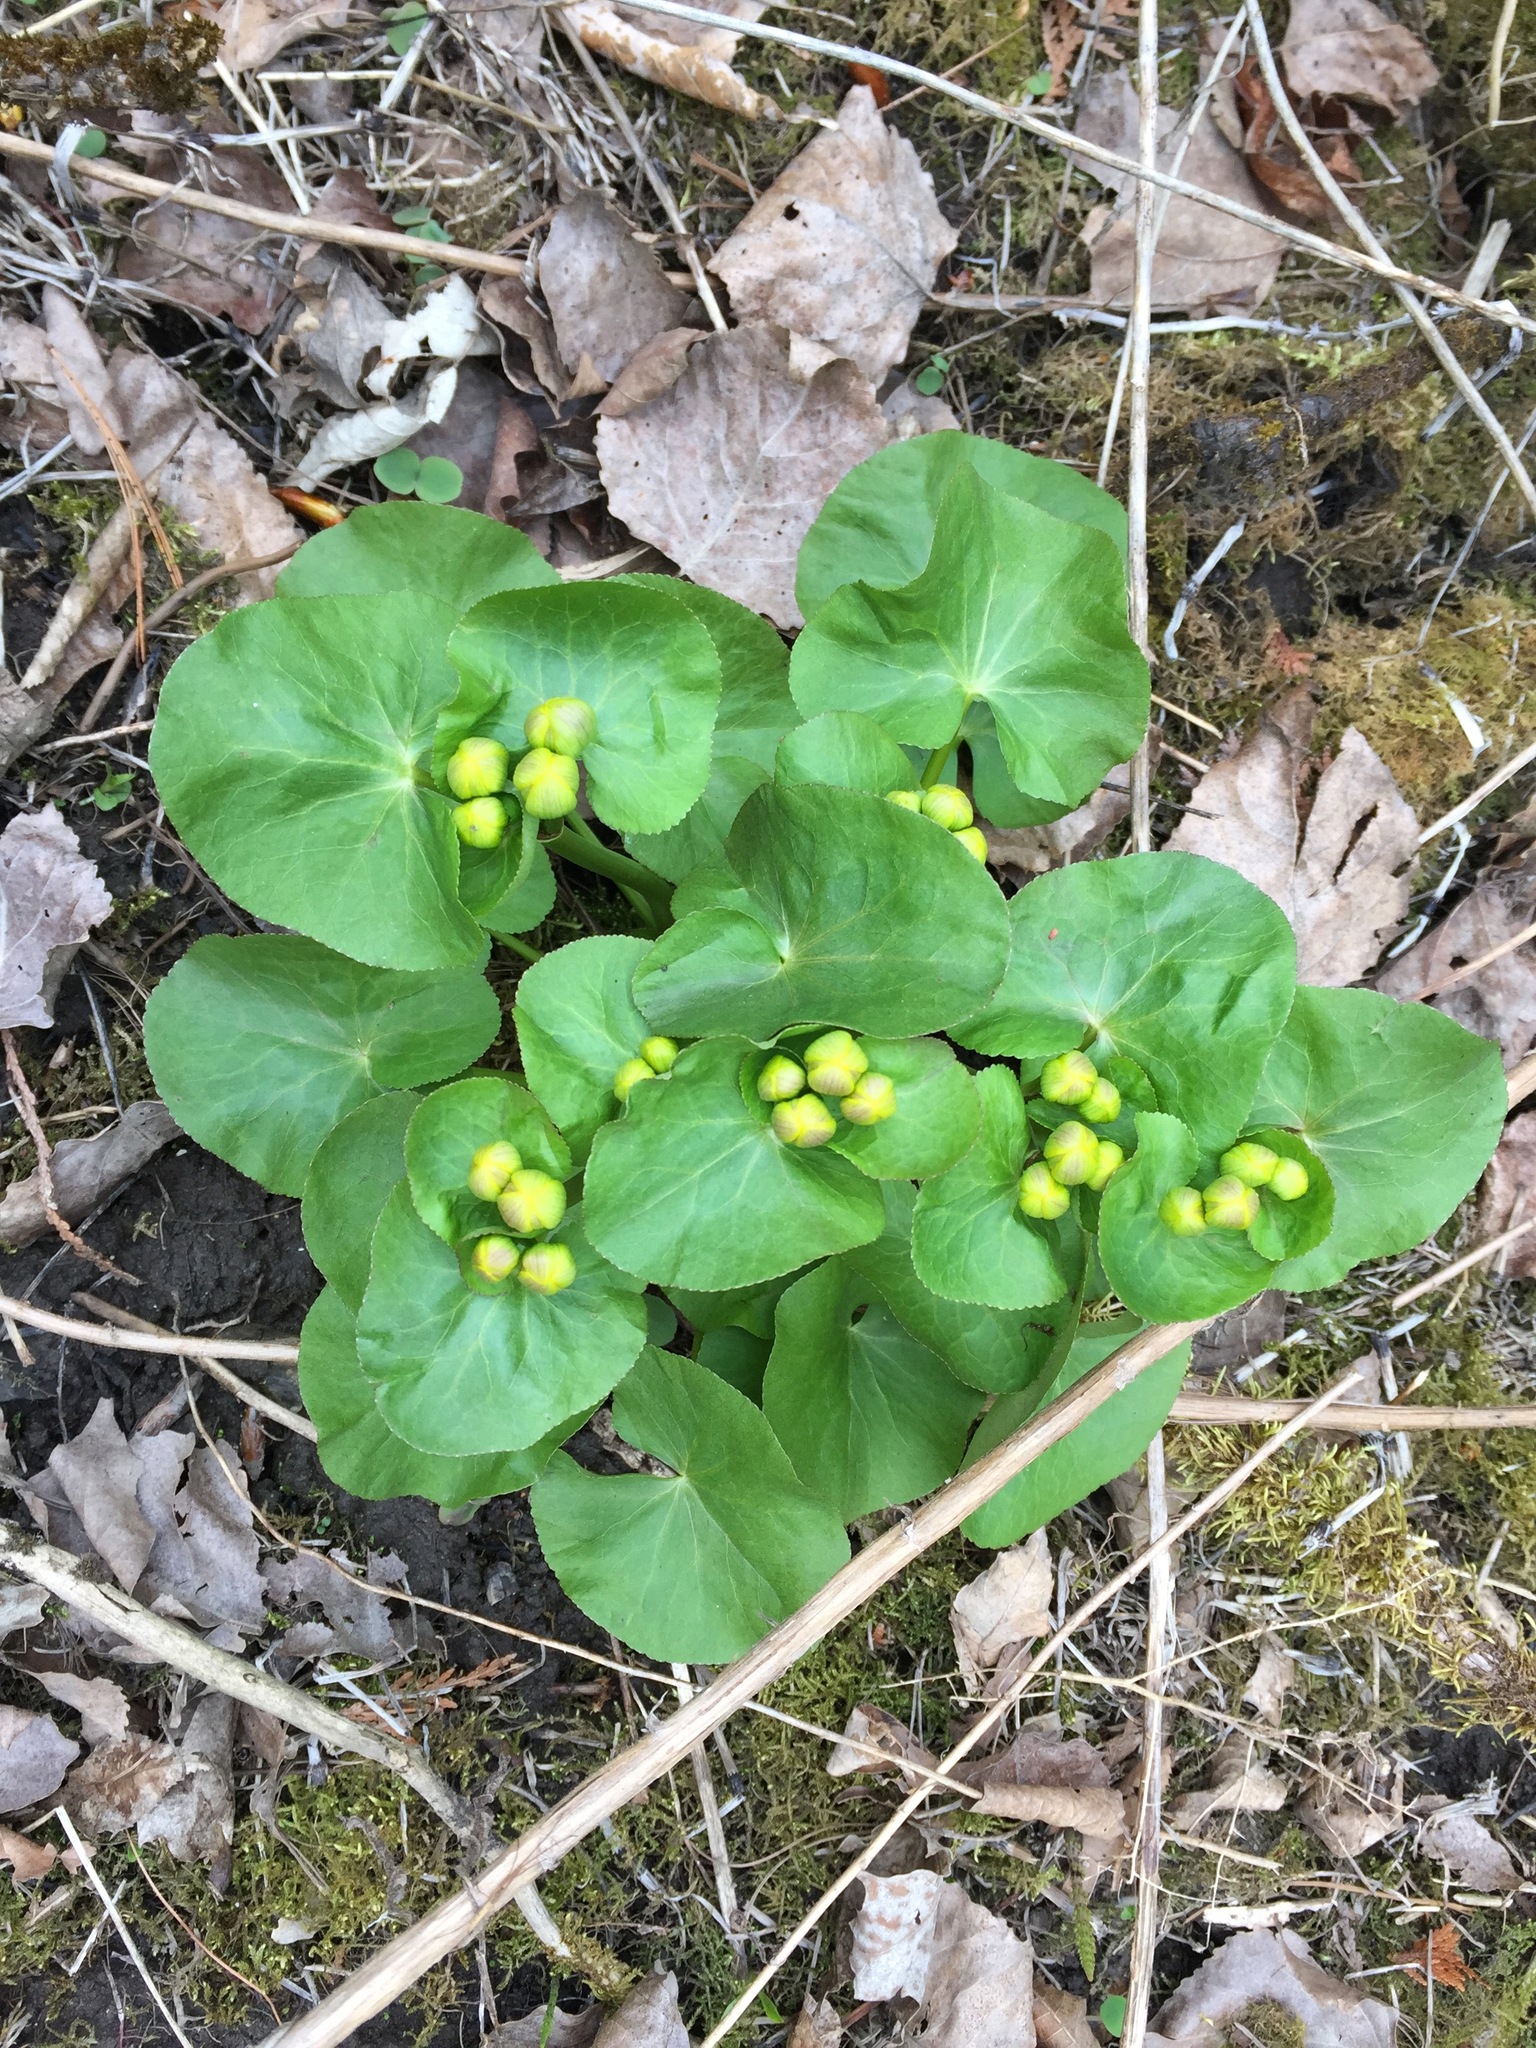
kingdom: Plantae
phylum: Tracheophyta
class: Magnoliopsida
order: Ranunculales
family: Ranunculaceae
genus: Caltha
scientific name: Caltha palustris
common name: Marsh marigold
